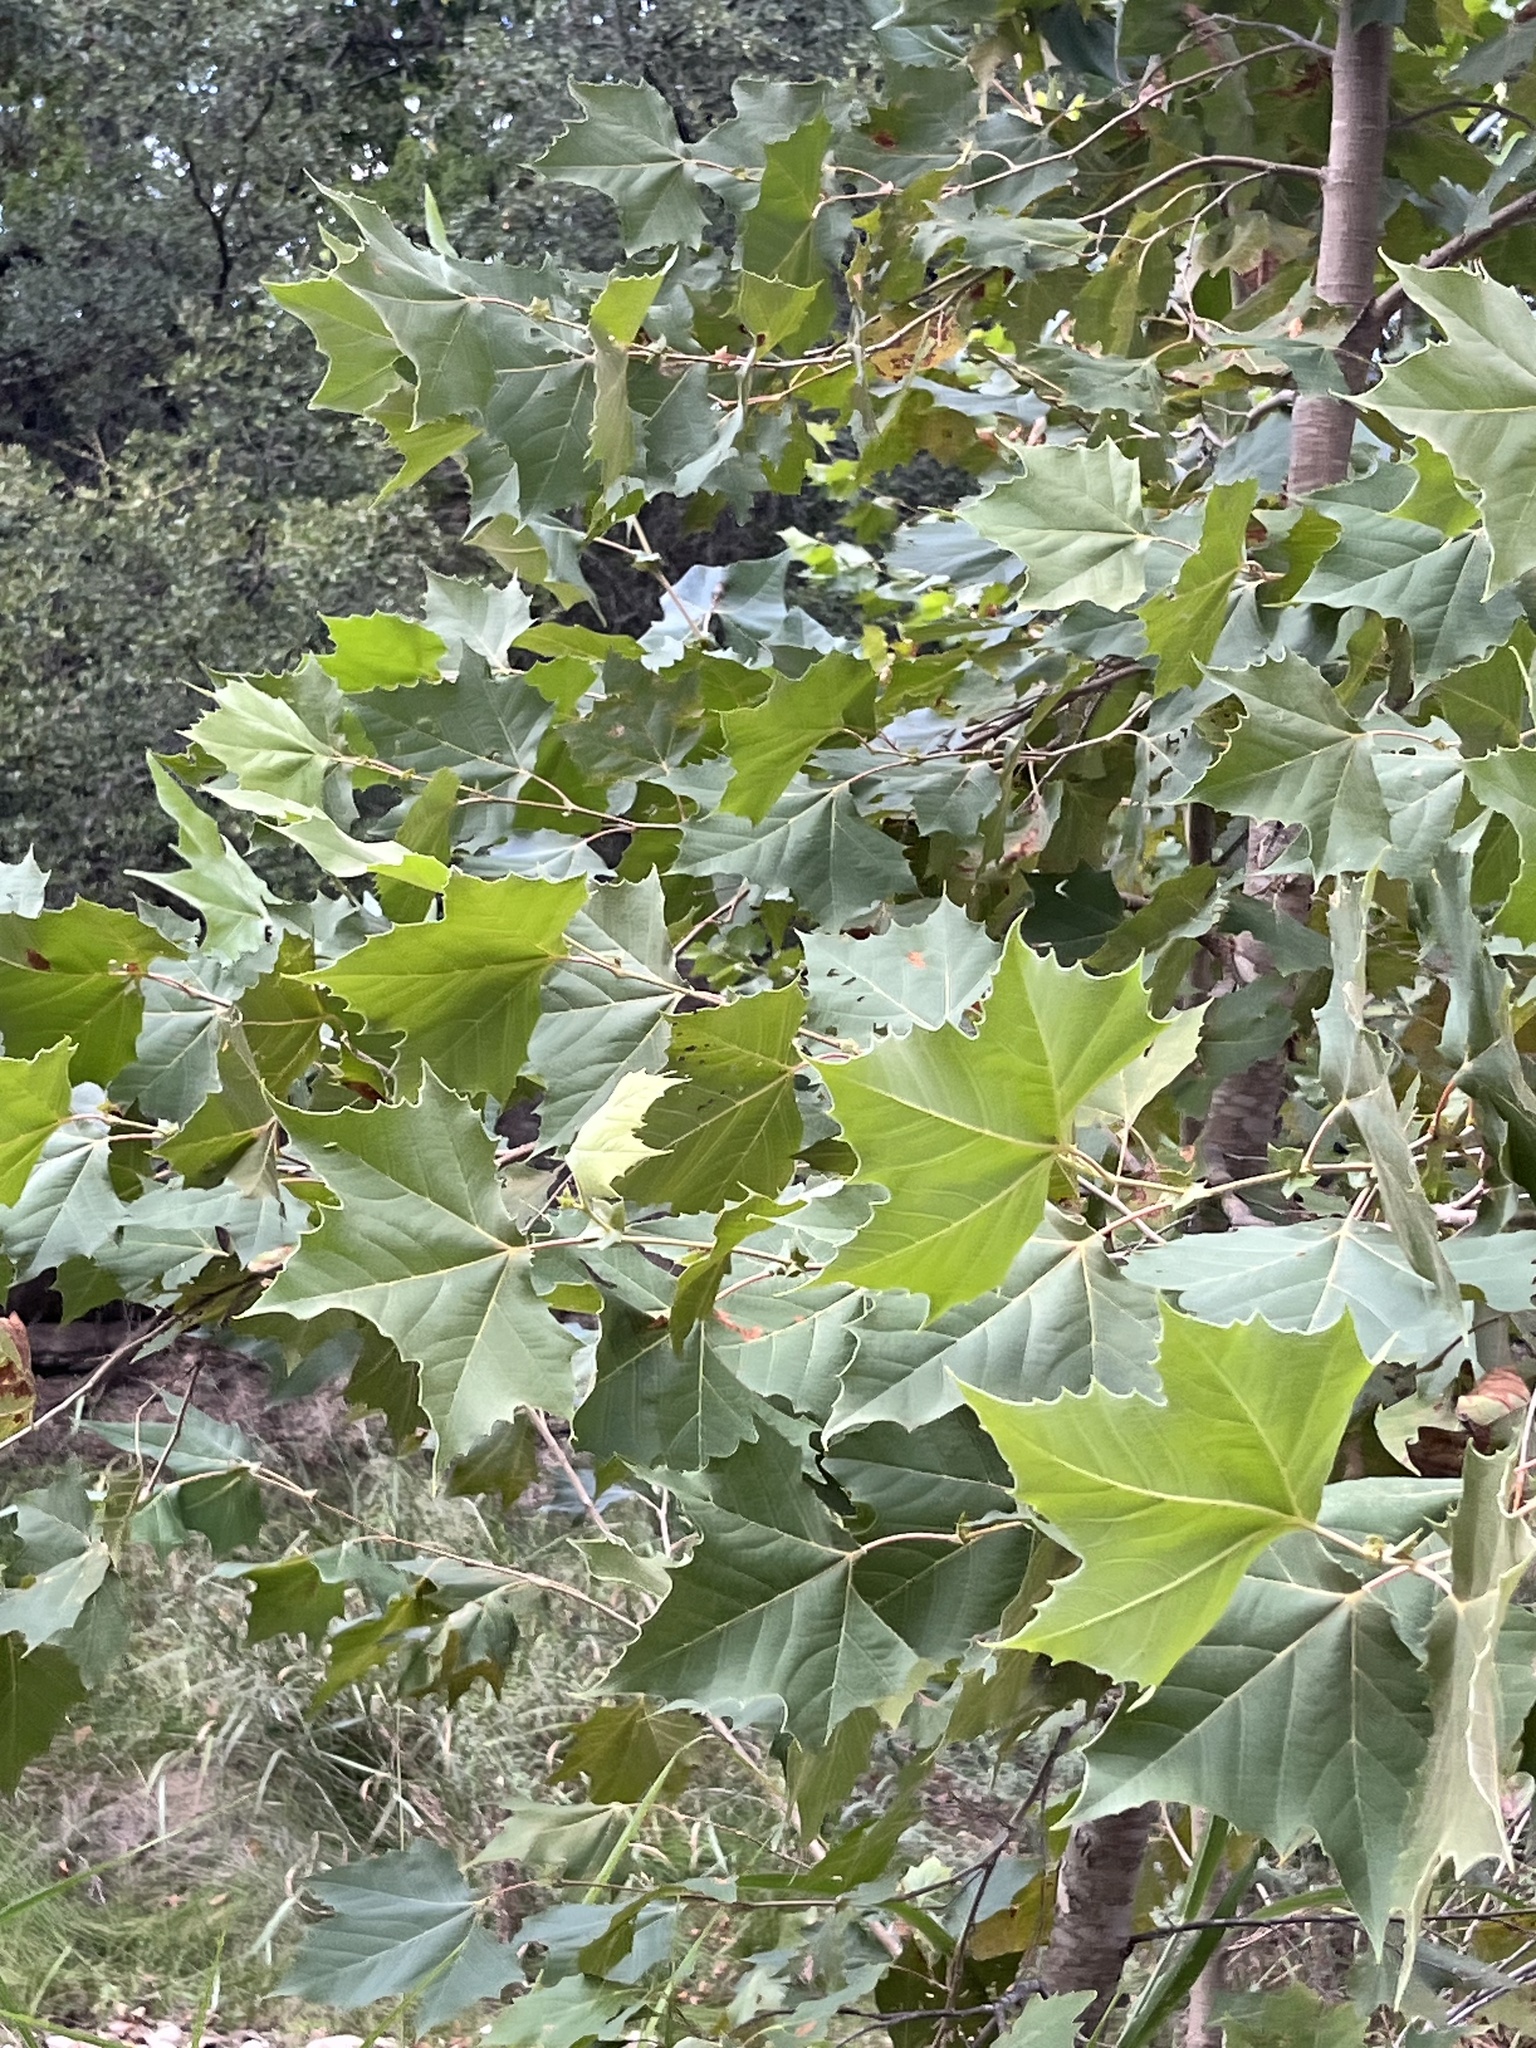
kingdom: Plantae
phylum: Tracheophyta
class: Magnoliopsida
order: Proteales
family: Platanaceae
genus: Platanus
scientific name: Platanus occidentalis
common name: American sycamore
